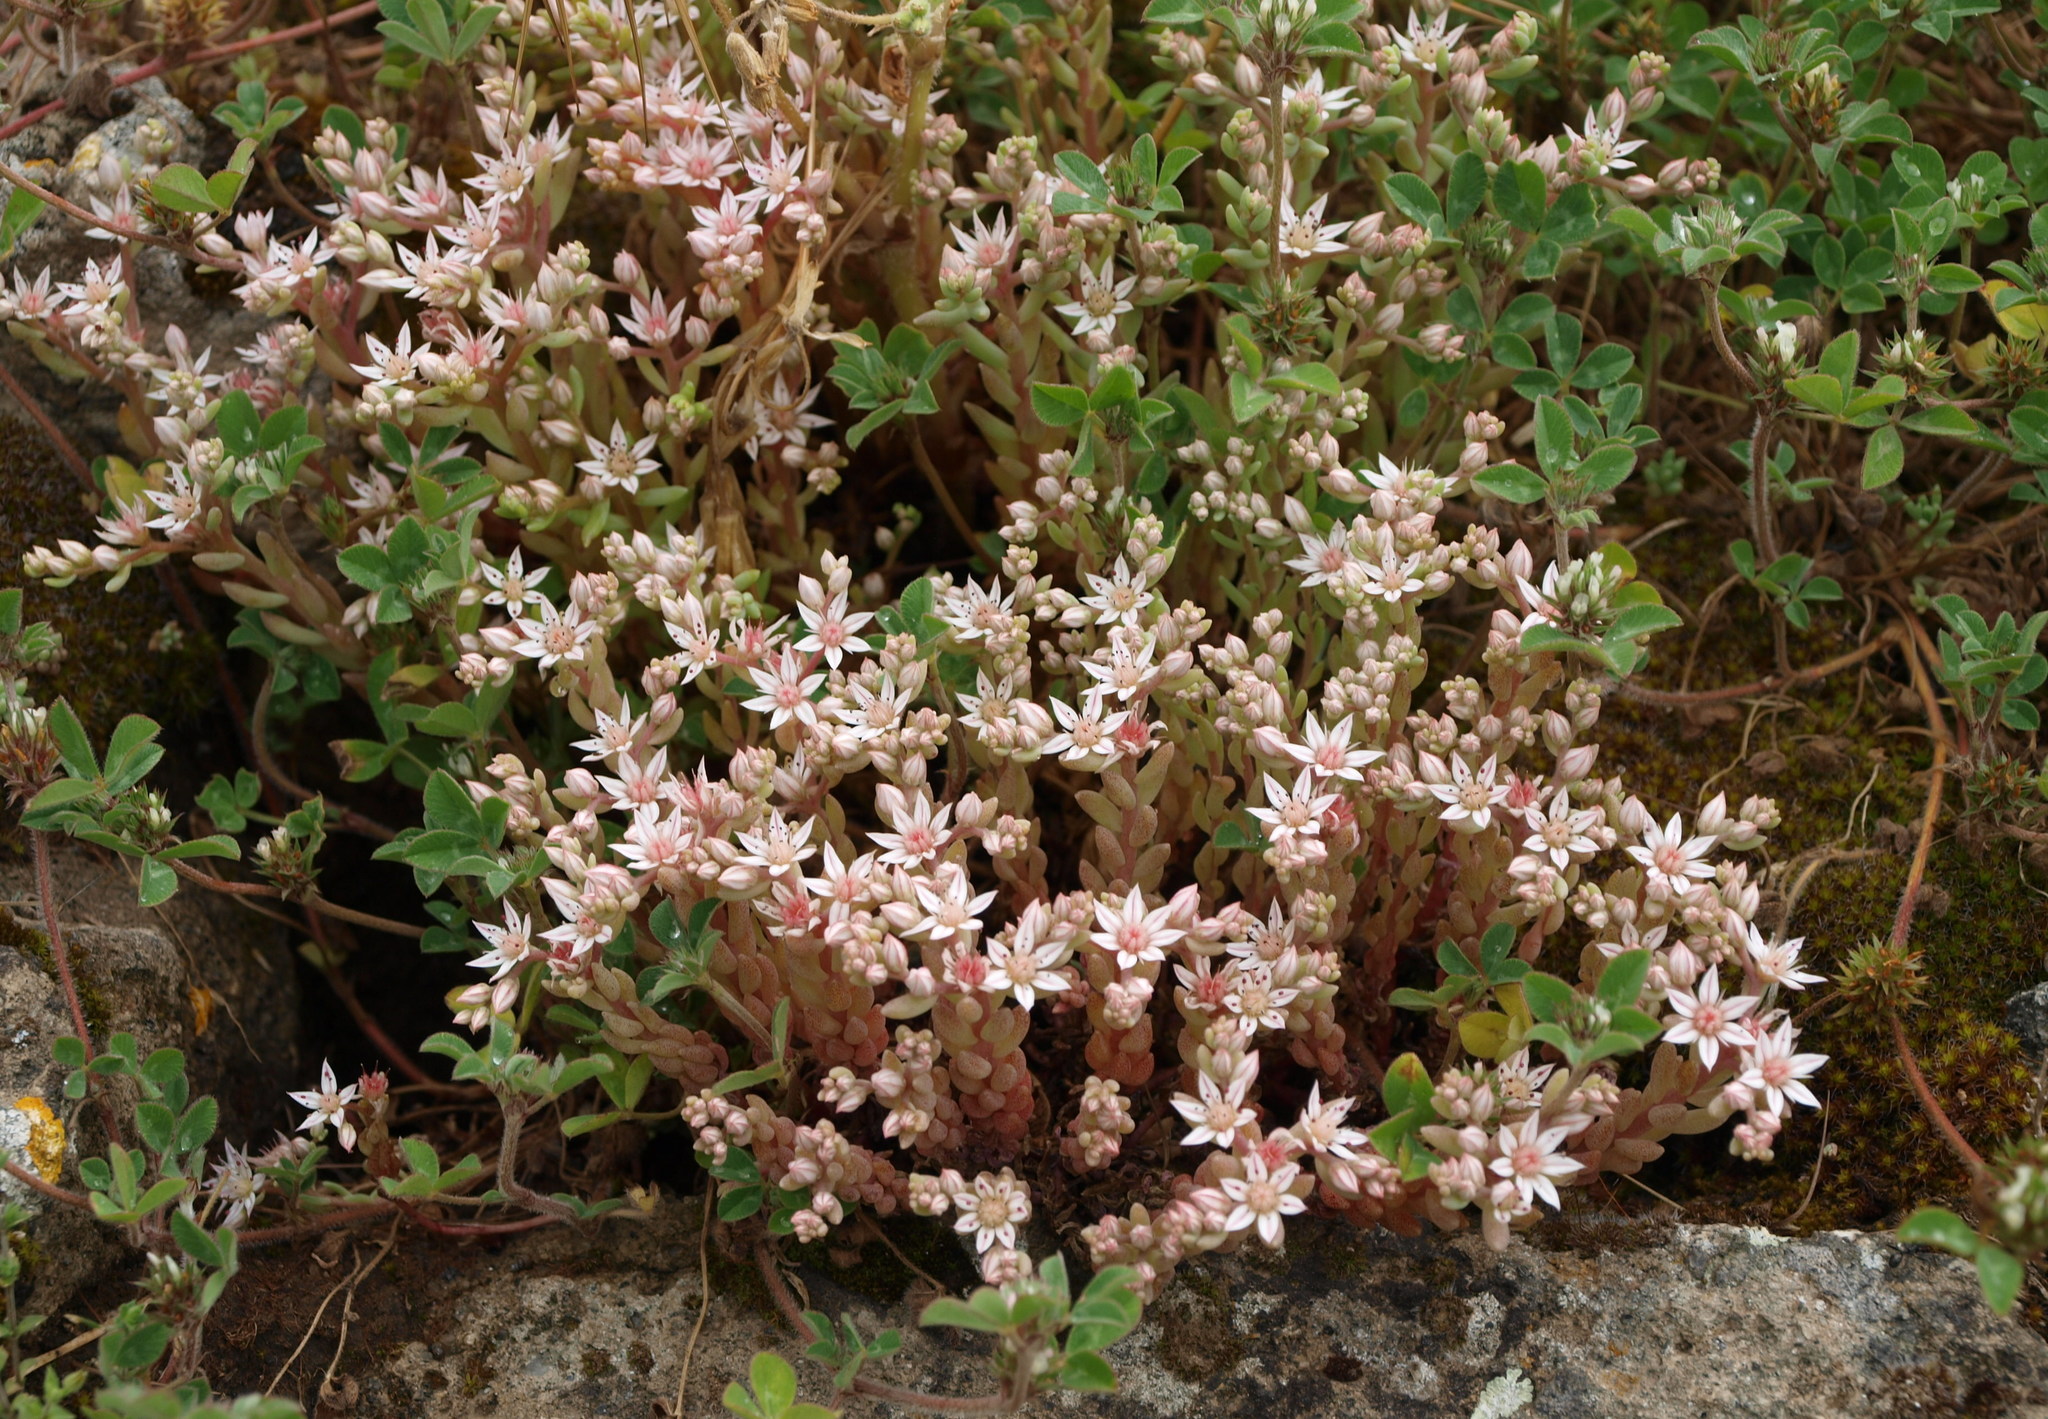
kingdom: Plantae
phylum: Tracheophyta
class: Magnoliopsida
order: Saxifragales
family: Crassulaceae
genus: Sedum
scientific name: Sedum hispanicum
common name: Spanish stonecrop
